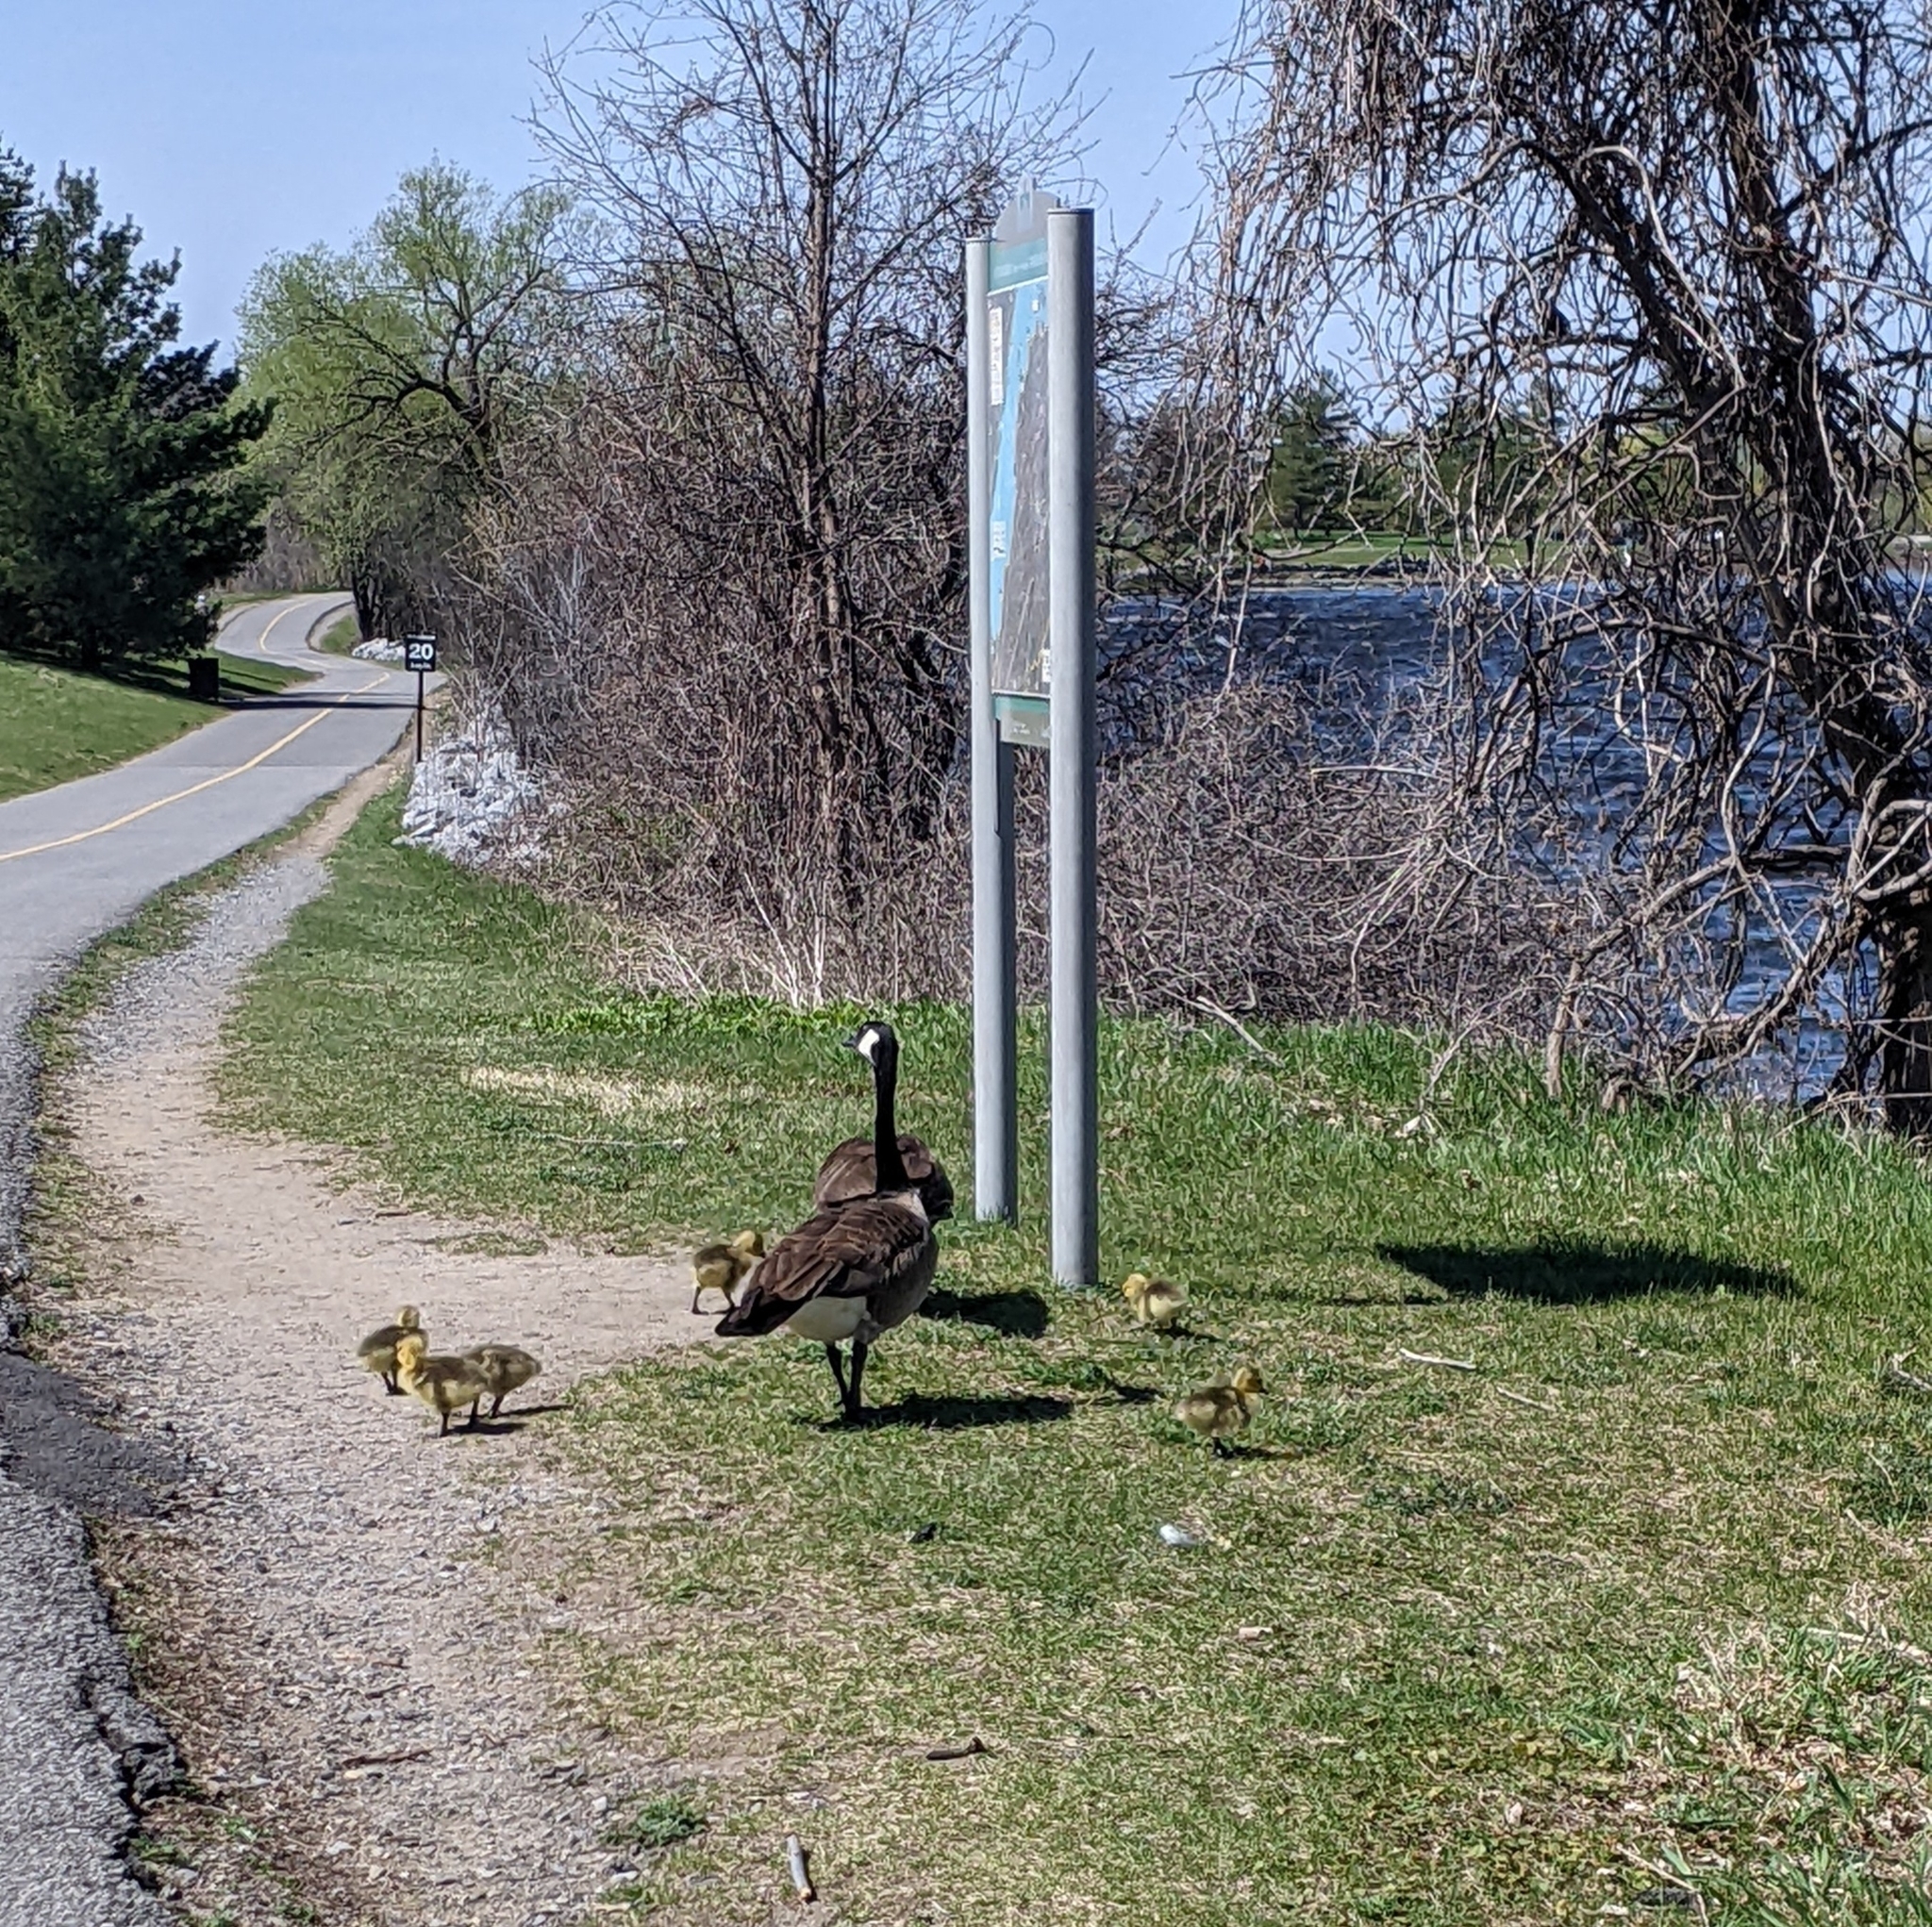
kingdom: Animalia
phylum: Chordata
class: Aves
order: Anseriformes
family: Anatidae
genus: Branta
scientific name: Branta canadensis
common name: Canada goose
